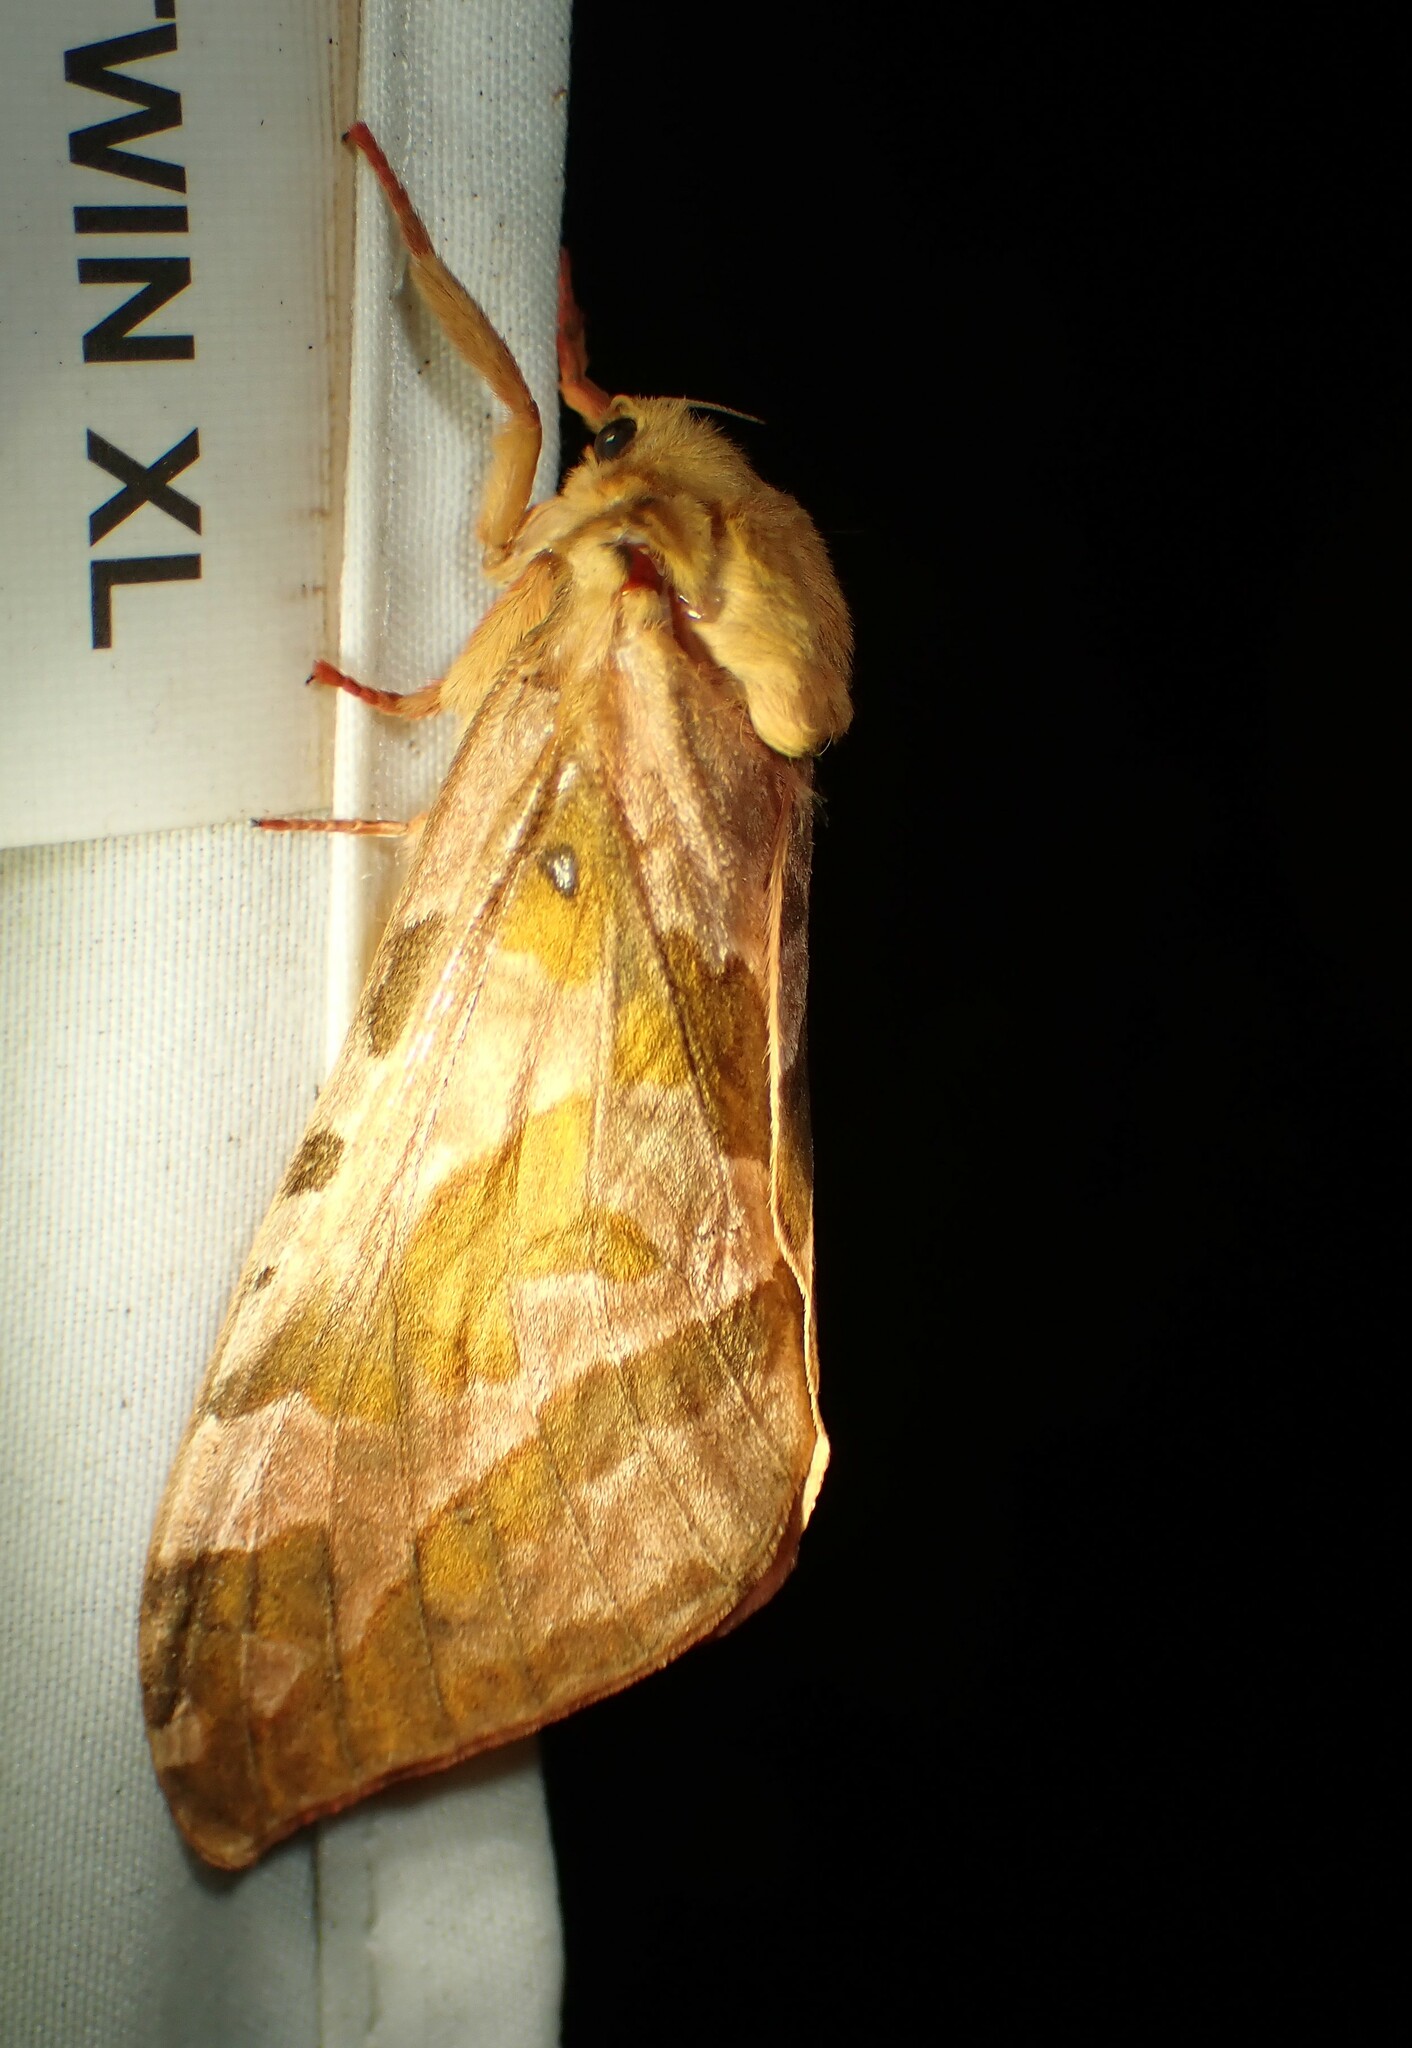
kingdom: Animalia
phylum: Arthropoda
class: Insecta
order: Lepidoptera
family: Hepialidae
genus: Sthenopis
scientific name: Sthenopis purpurascens
